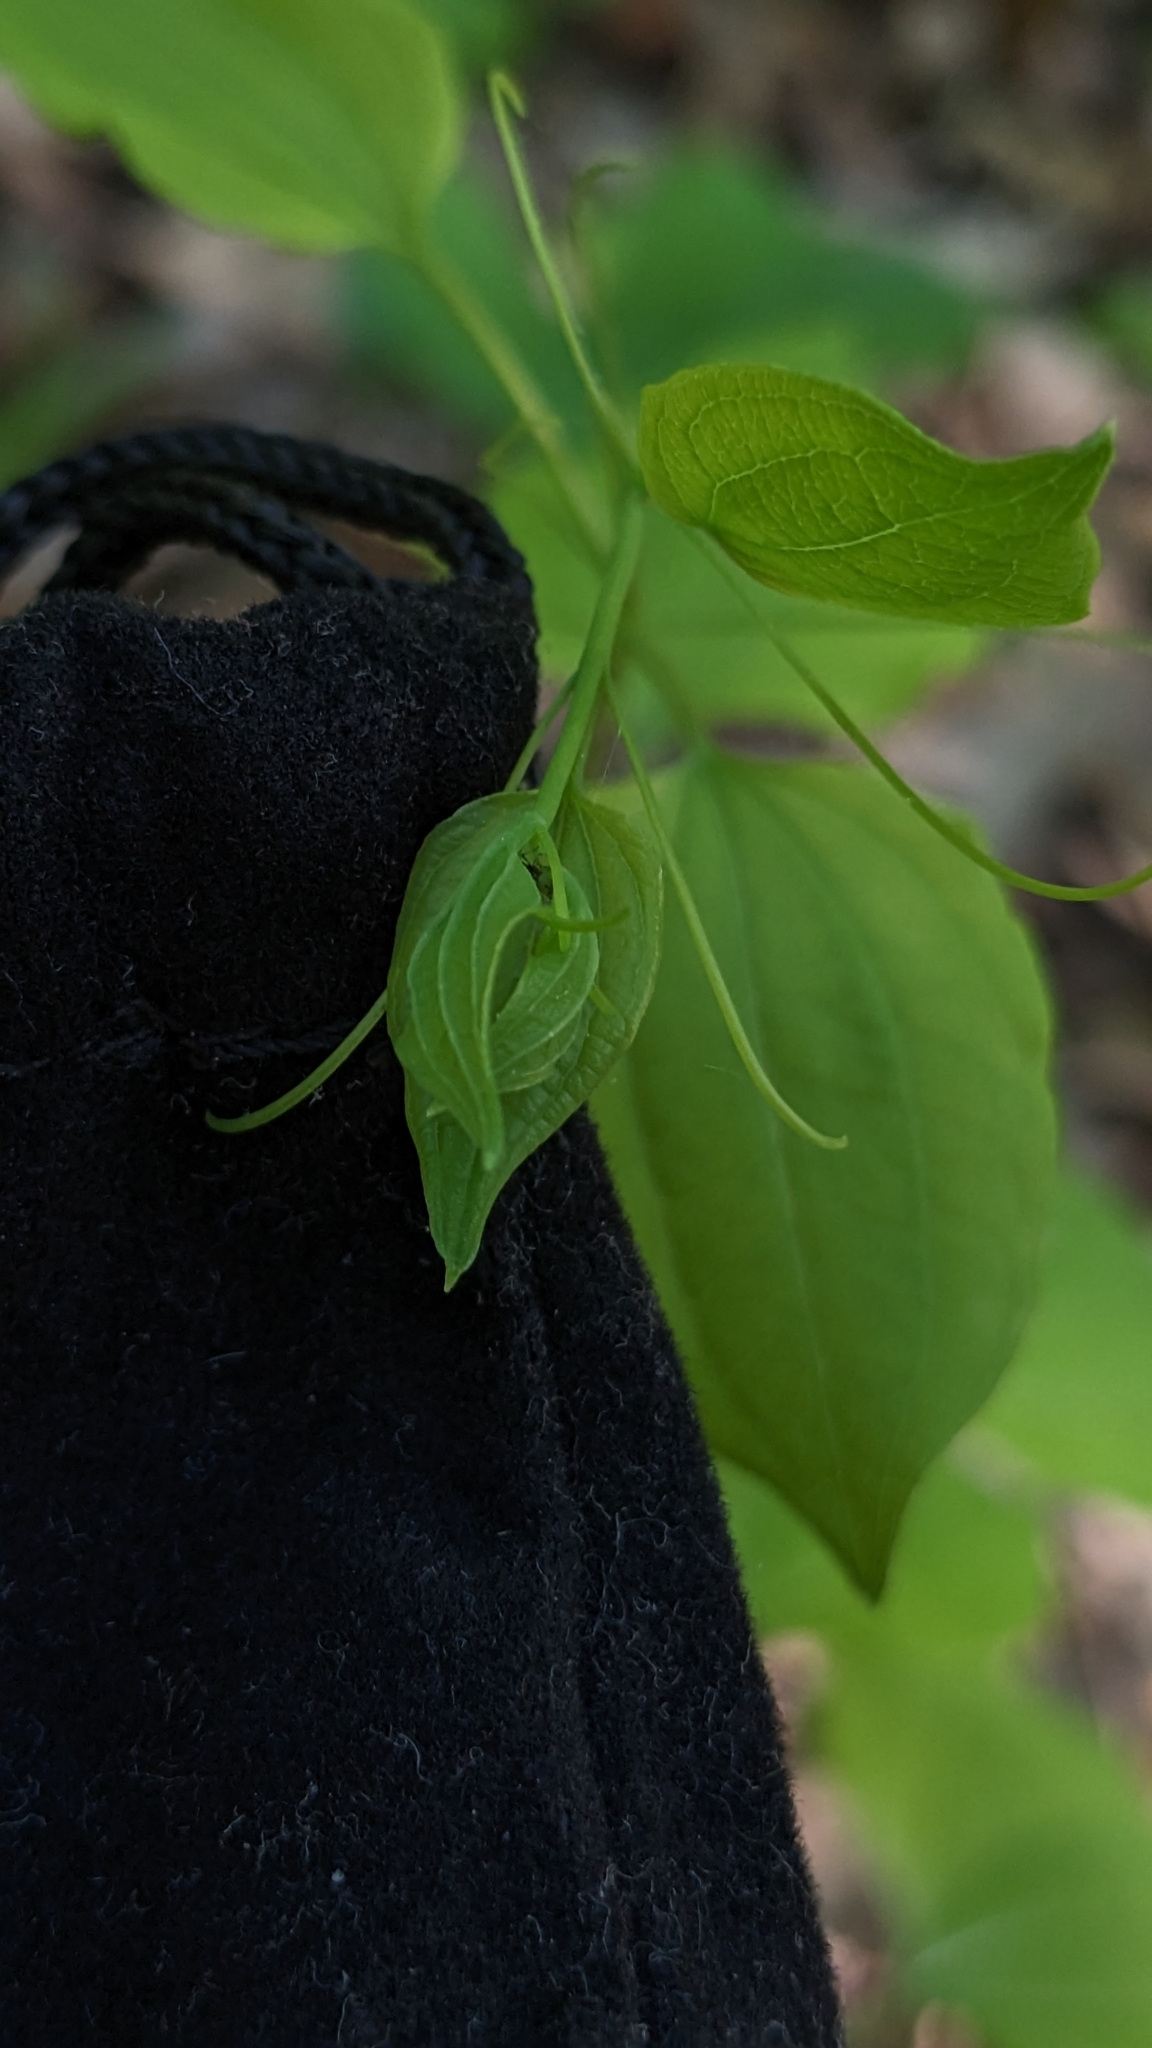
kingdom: Plantae
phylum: Tracheophyta
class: Liliopsida
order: Liliales
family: Smilacaceae
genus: Smilax
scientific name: Smilax herbacea
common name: Jacob's-ladder
